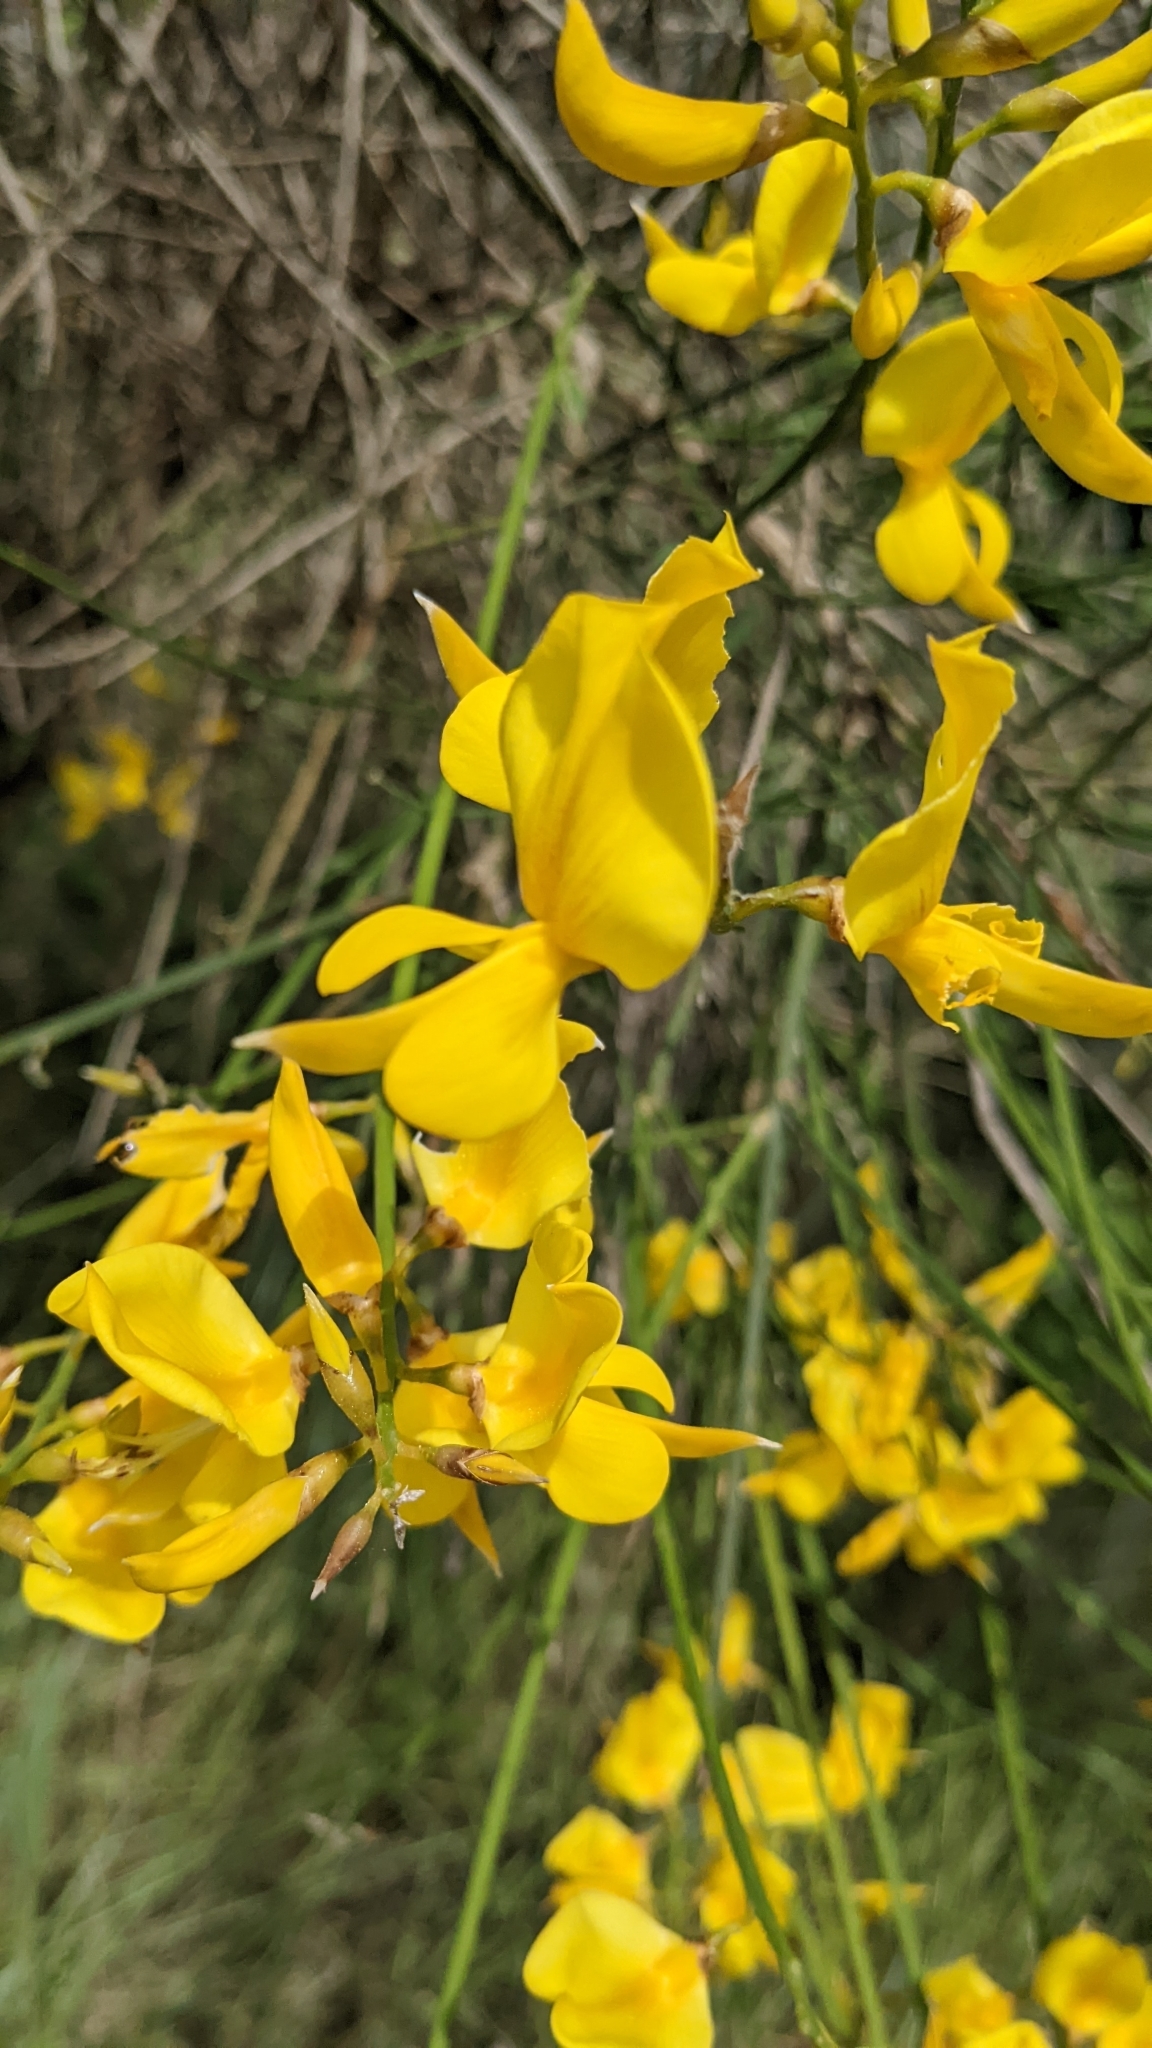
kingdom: Plantae
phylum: Tracheophyta
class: Magnoliopsida
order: Fabales
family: Fabaceae
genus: Spartium
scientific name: Spartium junceum
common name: Spanish broom
